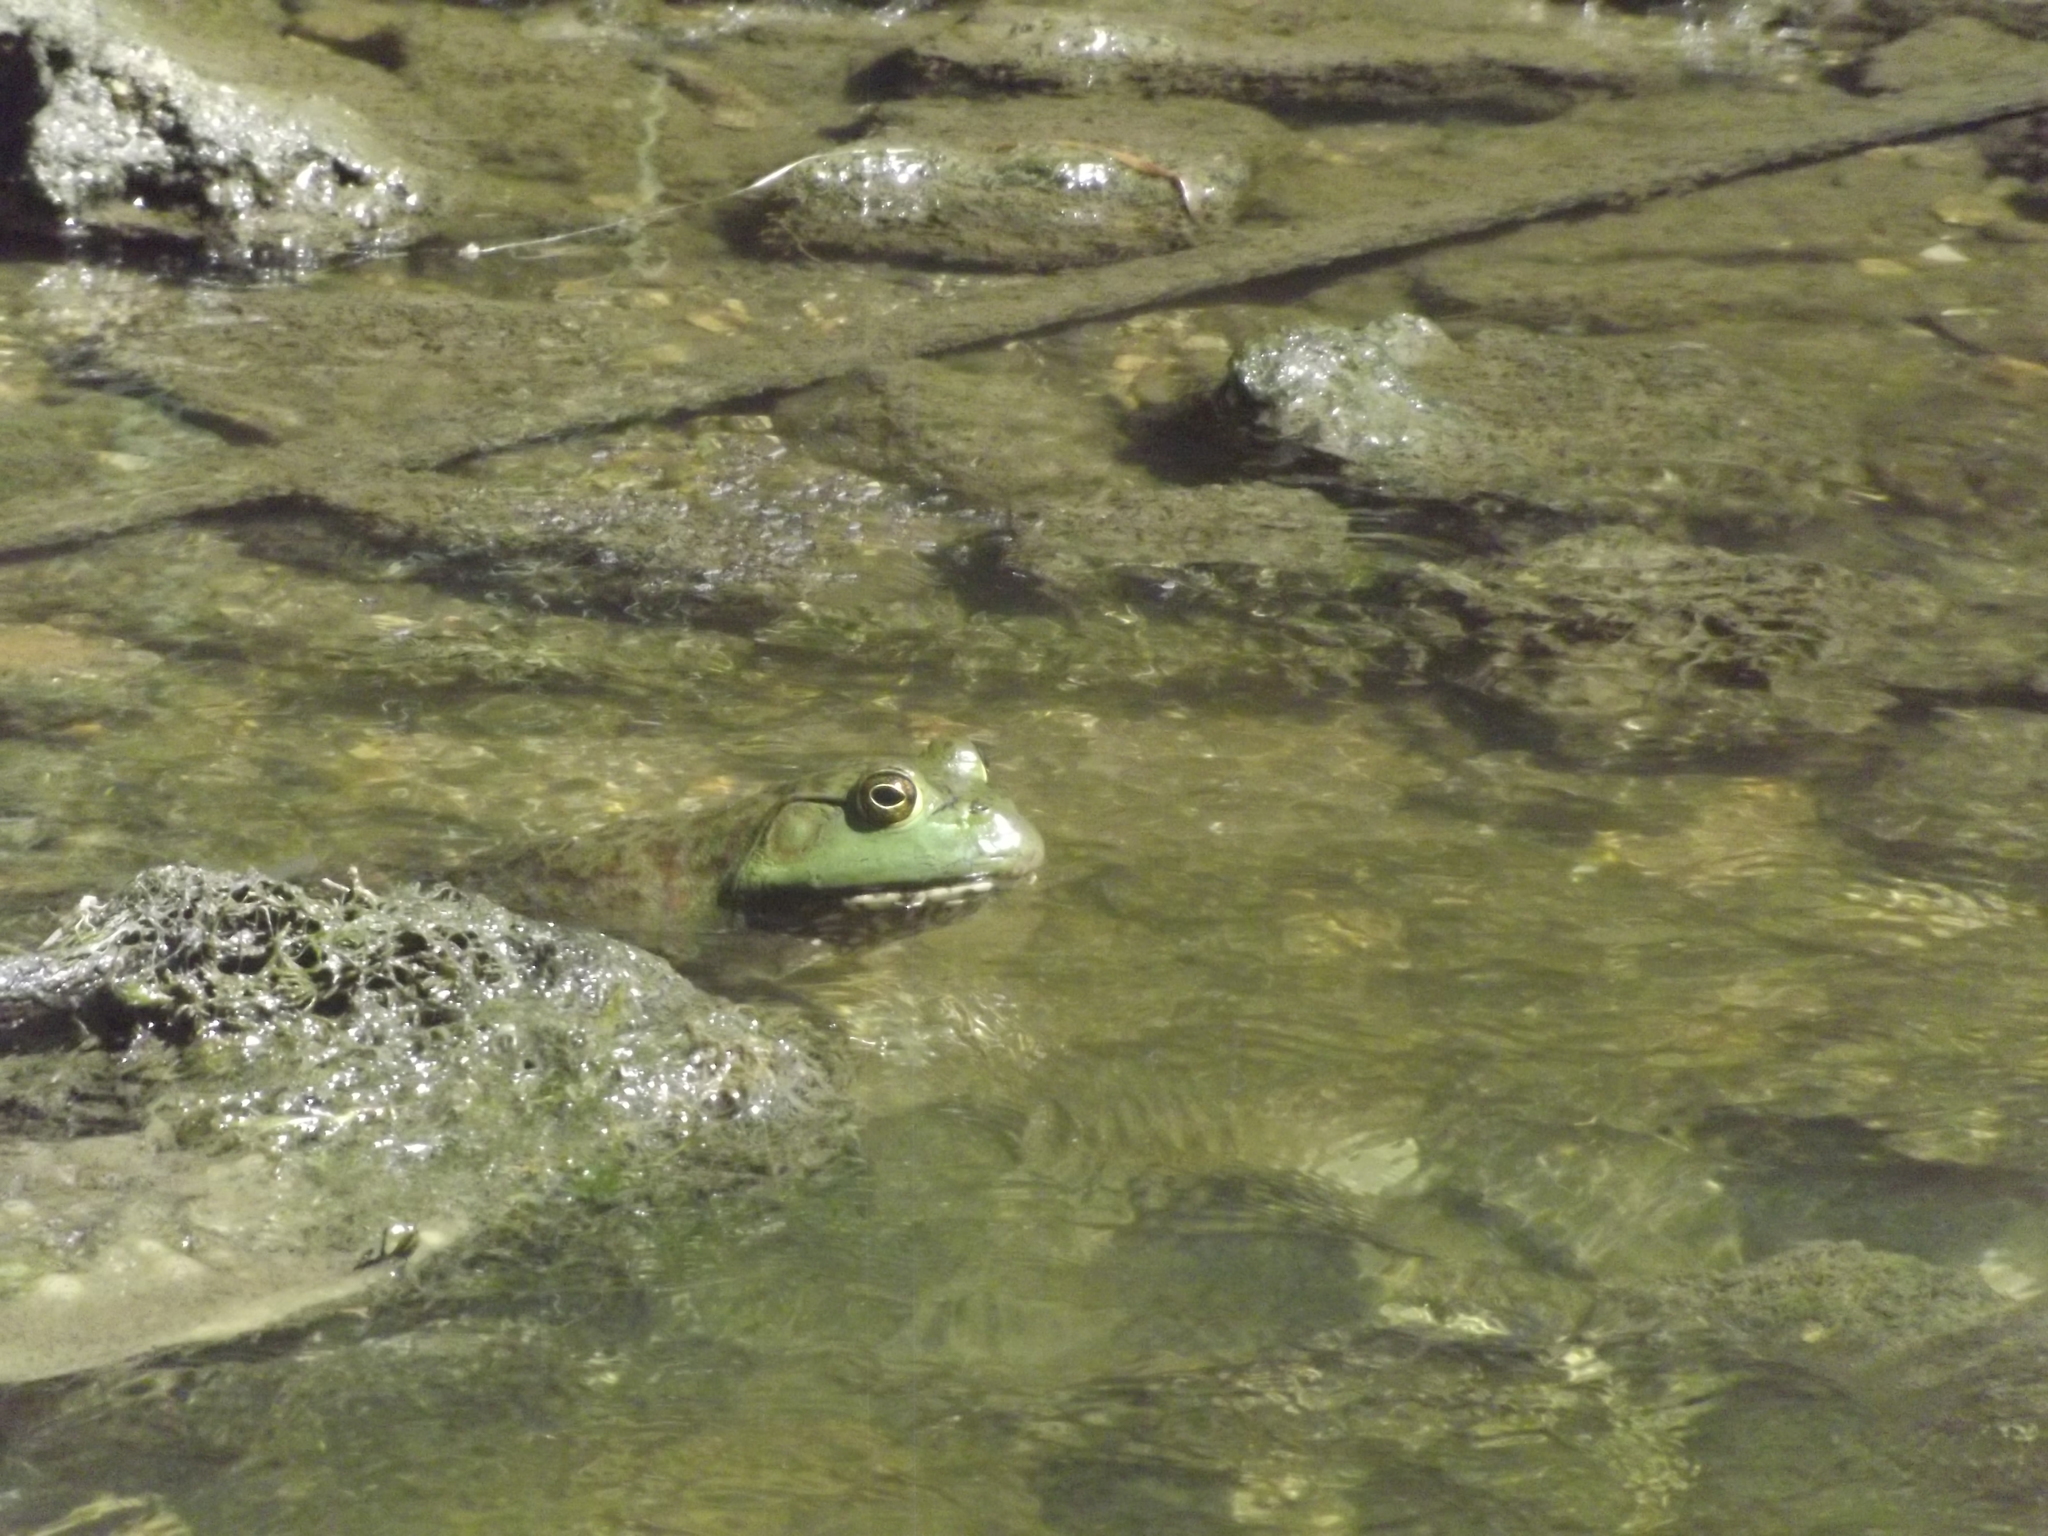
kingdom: Animalia
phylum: Chordata
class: Amphibia
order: Anura
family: Ranidae
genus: Lithobates
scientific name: Lithobates catesbeianus
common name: American bullfrog
